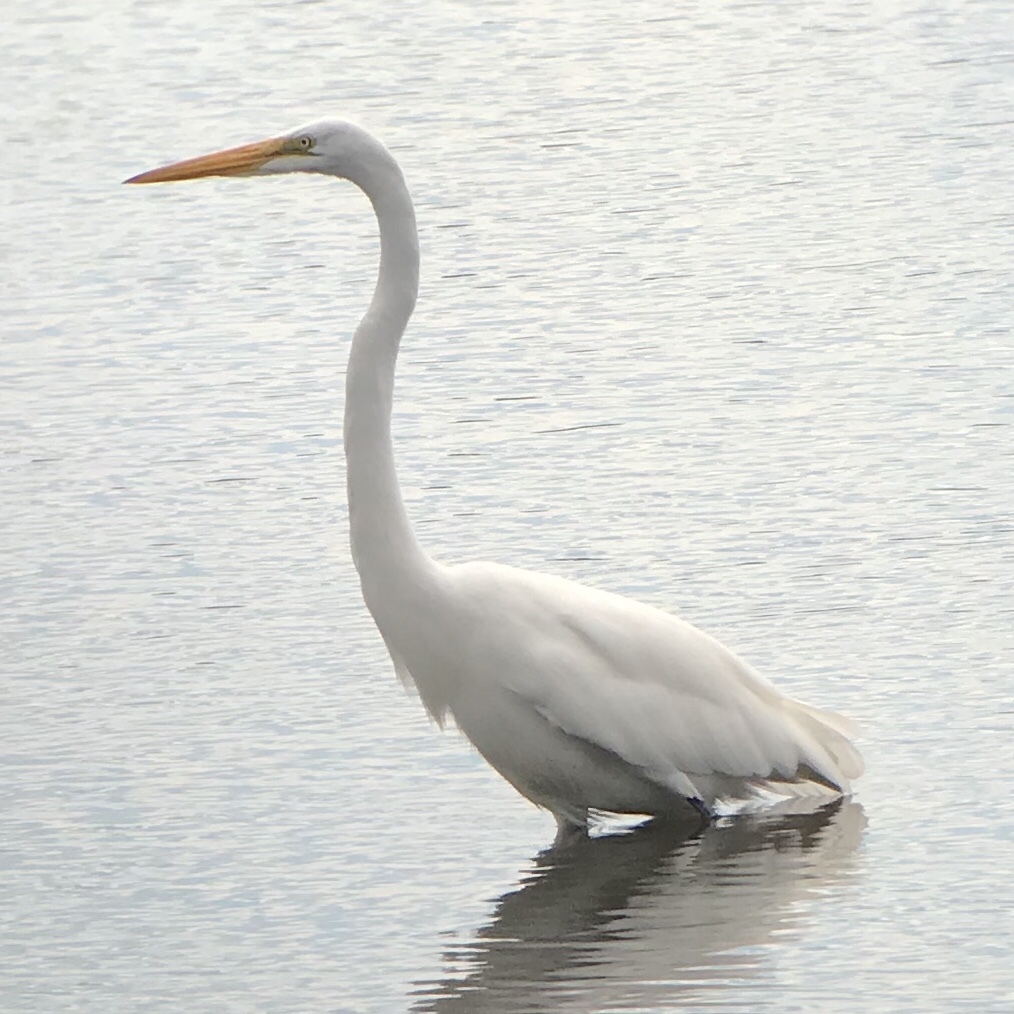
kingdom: Animalia
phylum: Chordata
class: Aves
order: Pelecaniformes
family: Ardeidae
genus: Ardea
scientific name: Ardea alba
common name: Great egret
